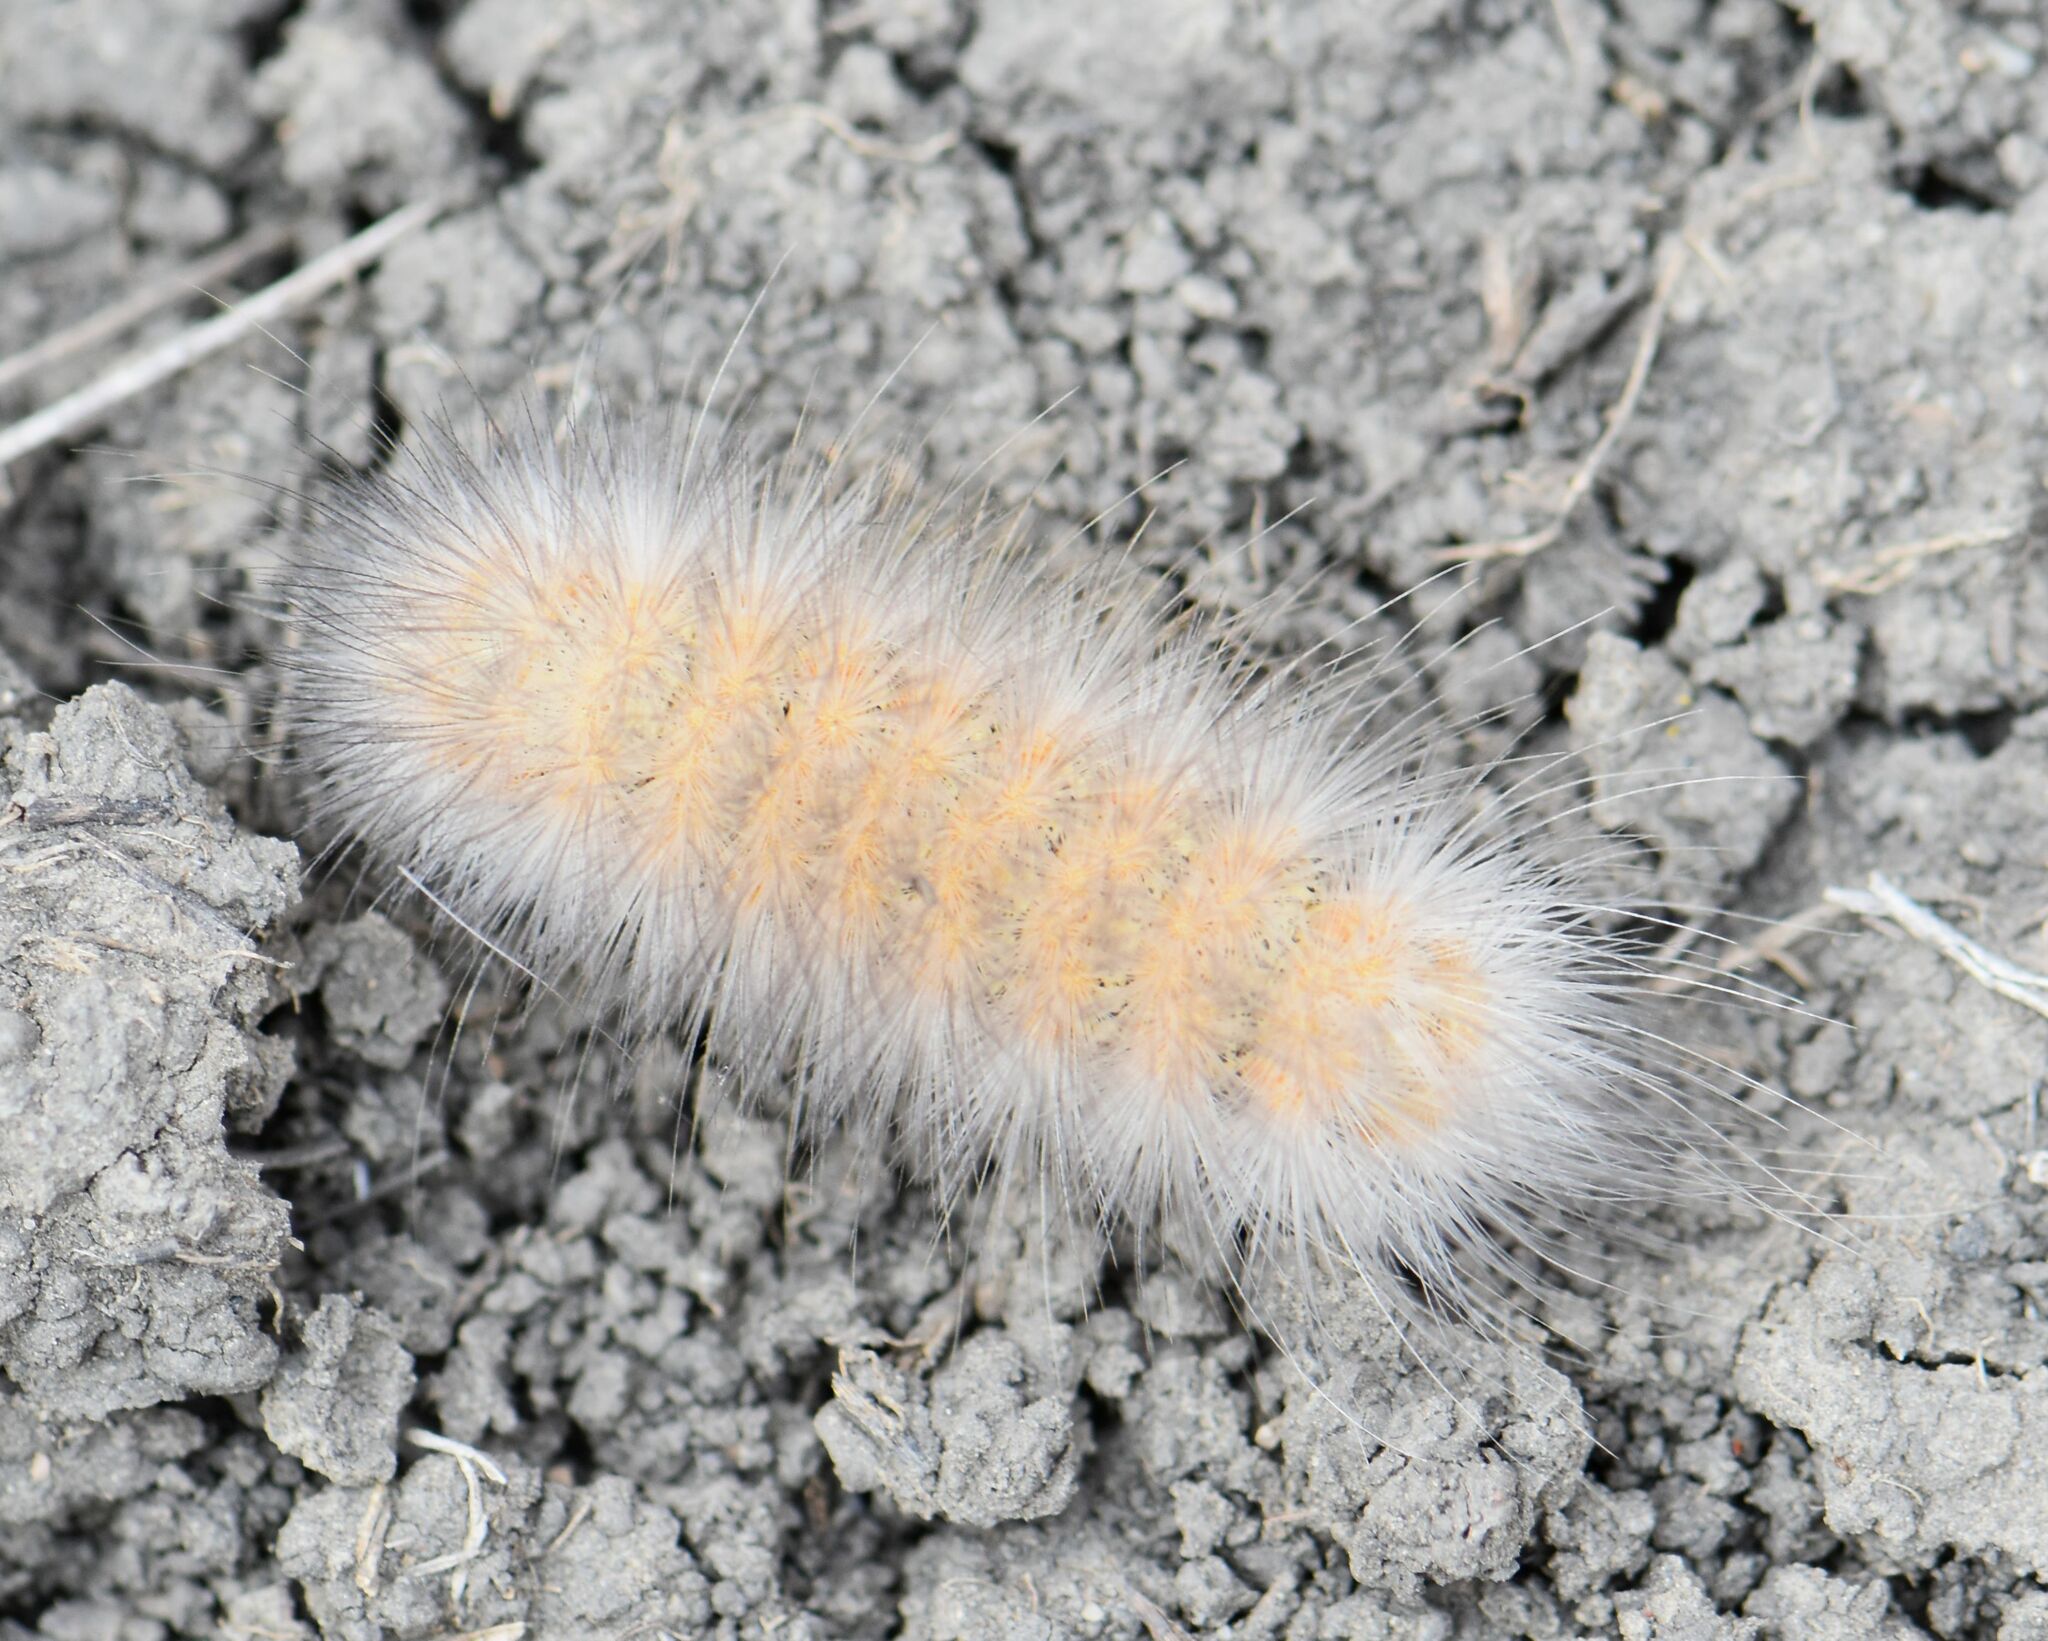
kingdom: Animalia
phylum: Arthropoda
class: Insecta
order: Lepidoptera
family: Erebidae
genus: Estigmene
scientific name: Estigmene acrea
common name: Salt marsh moth
